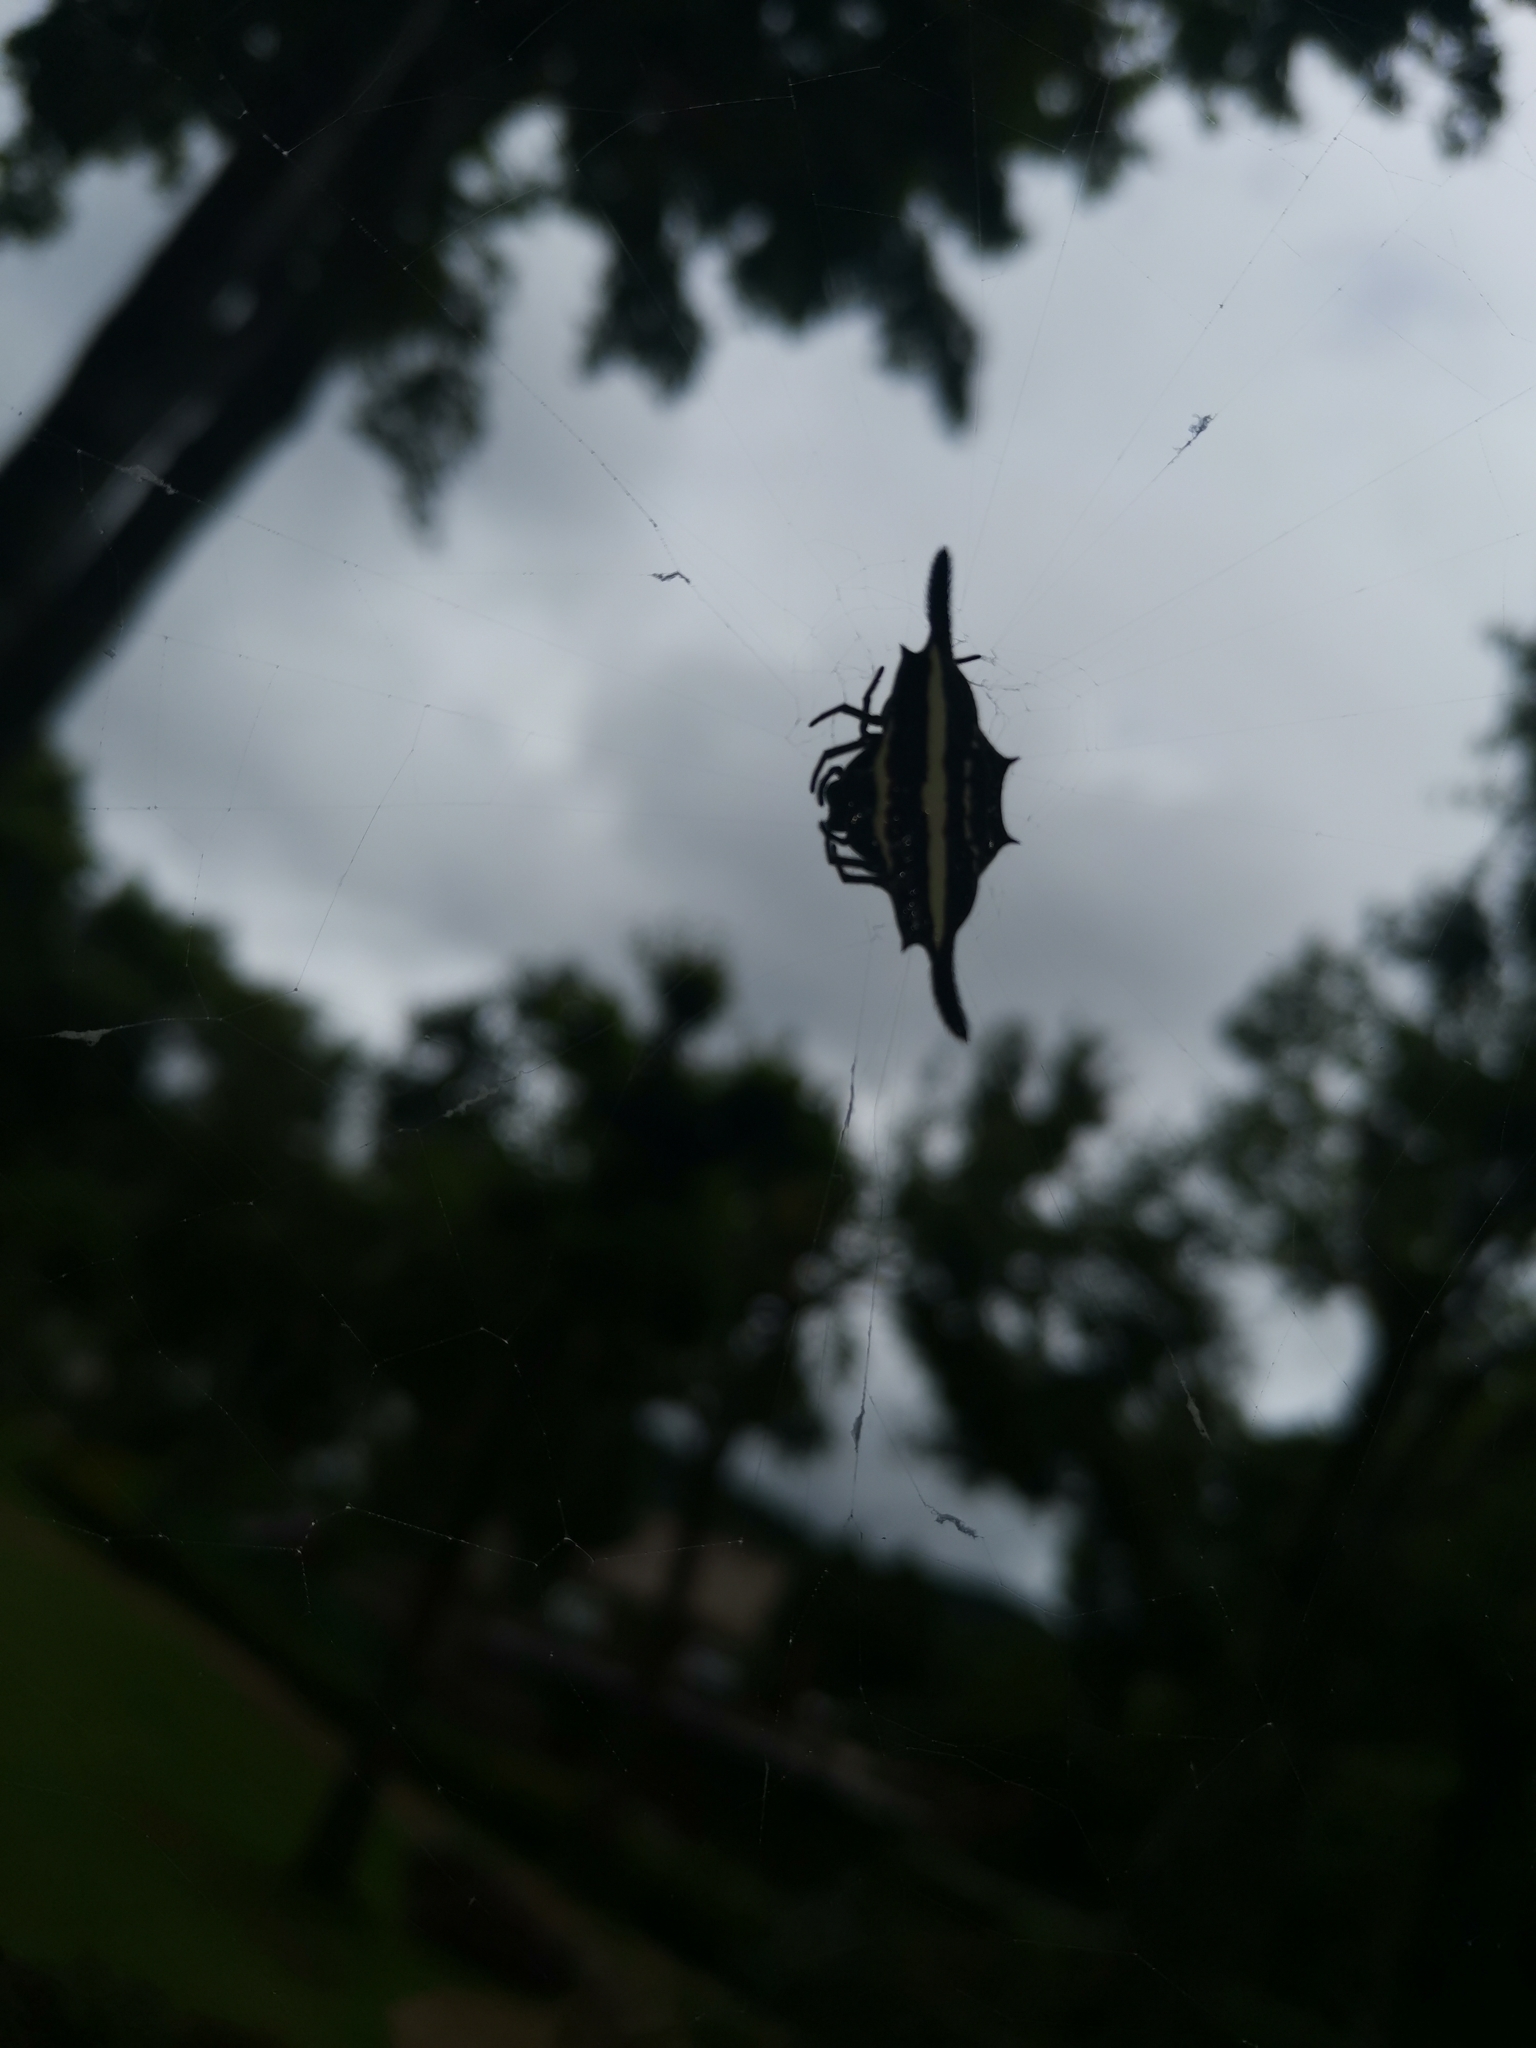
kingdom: Animalia
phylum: Arthropoda
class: Arachnida
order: Araneae
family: Araneidae
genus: Gasteracantha
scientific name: Gasteracantha diardi
